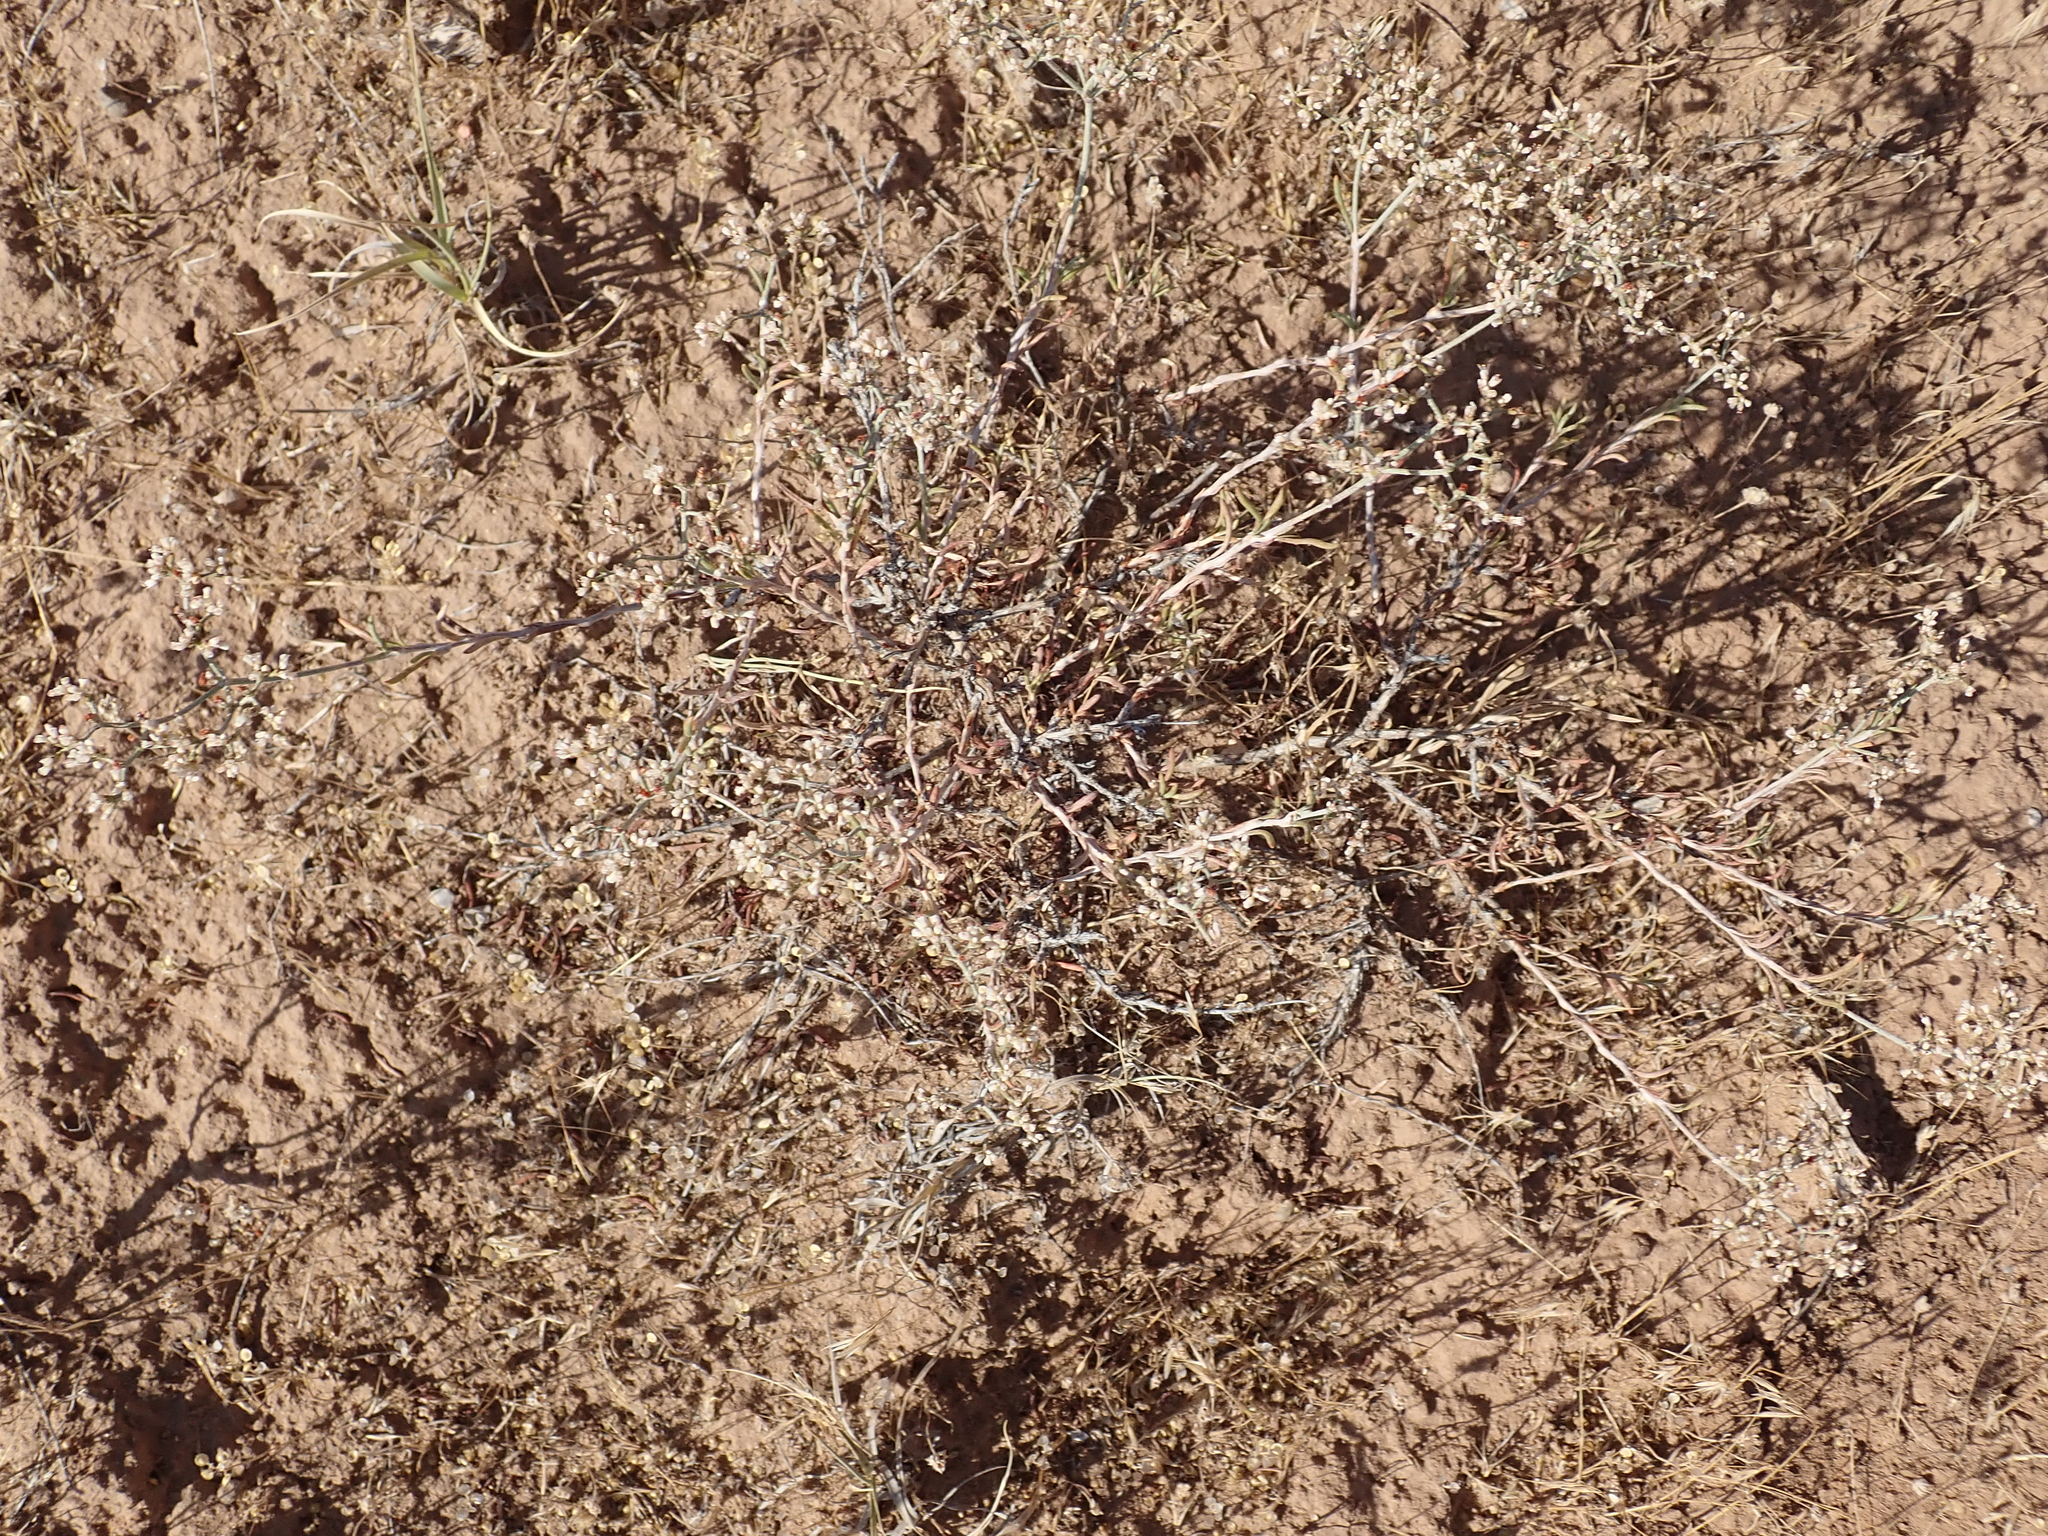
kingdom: Plantae
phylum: Tracheophyta
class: Magnoliopsida
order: Caryophyllales
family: Polygonaceae
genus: Eriogonum
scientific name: Eriogonum microtheca
